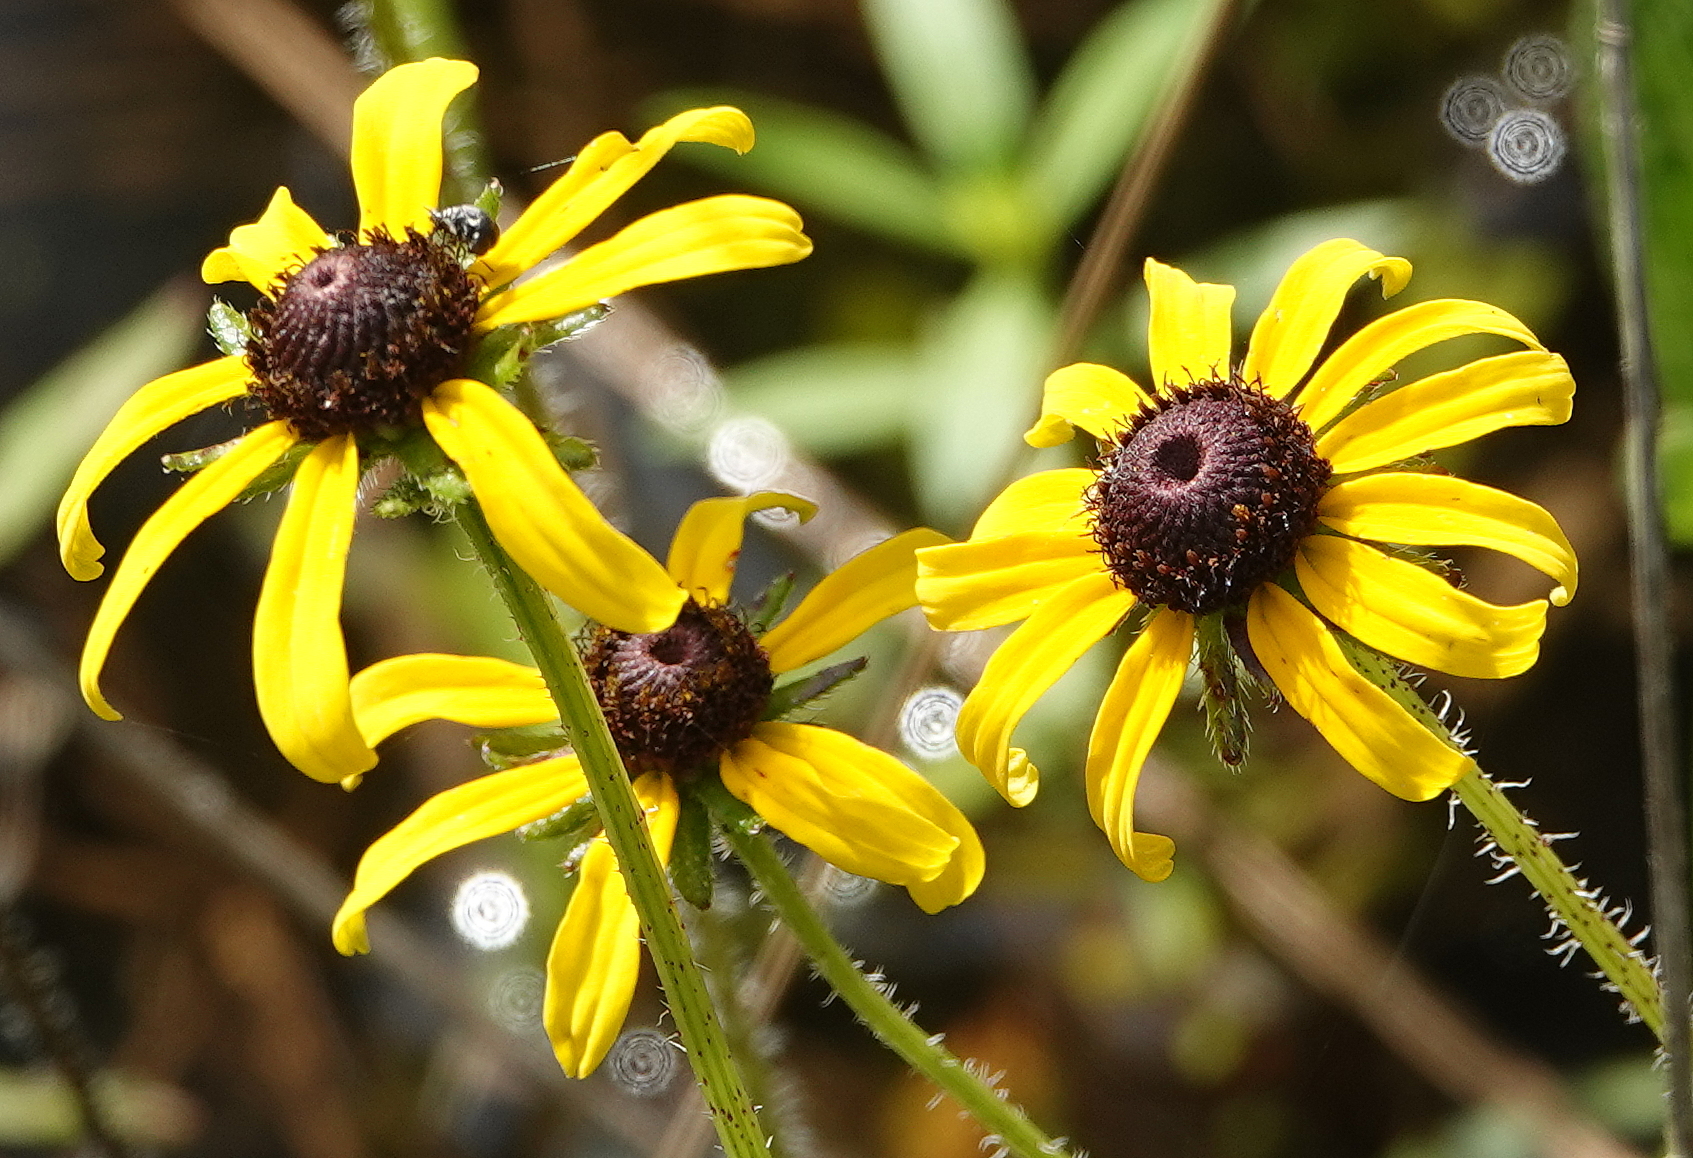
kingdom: Plantae
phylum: Tracheophyta
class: Magnoliopsida
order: Asterales
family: Asteraceae
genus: Rudbeckia
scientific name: Rudbeckia hirta
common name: Black-eyed-susan
